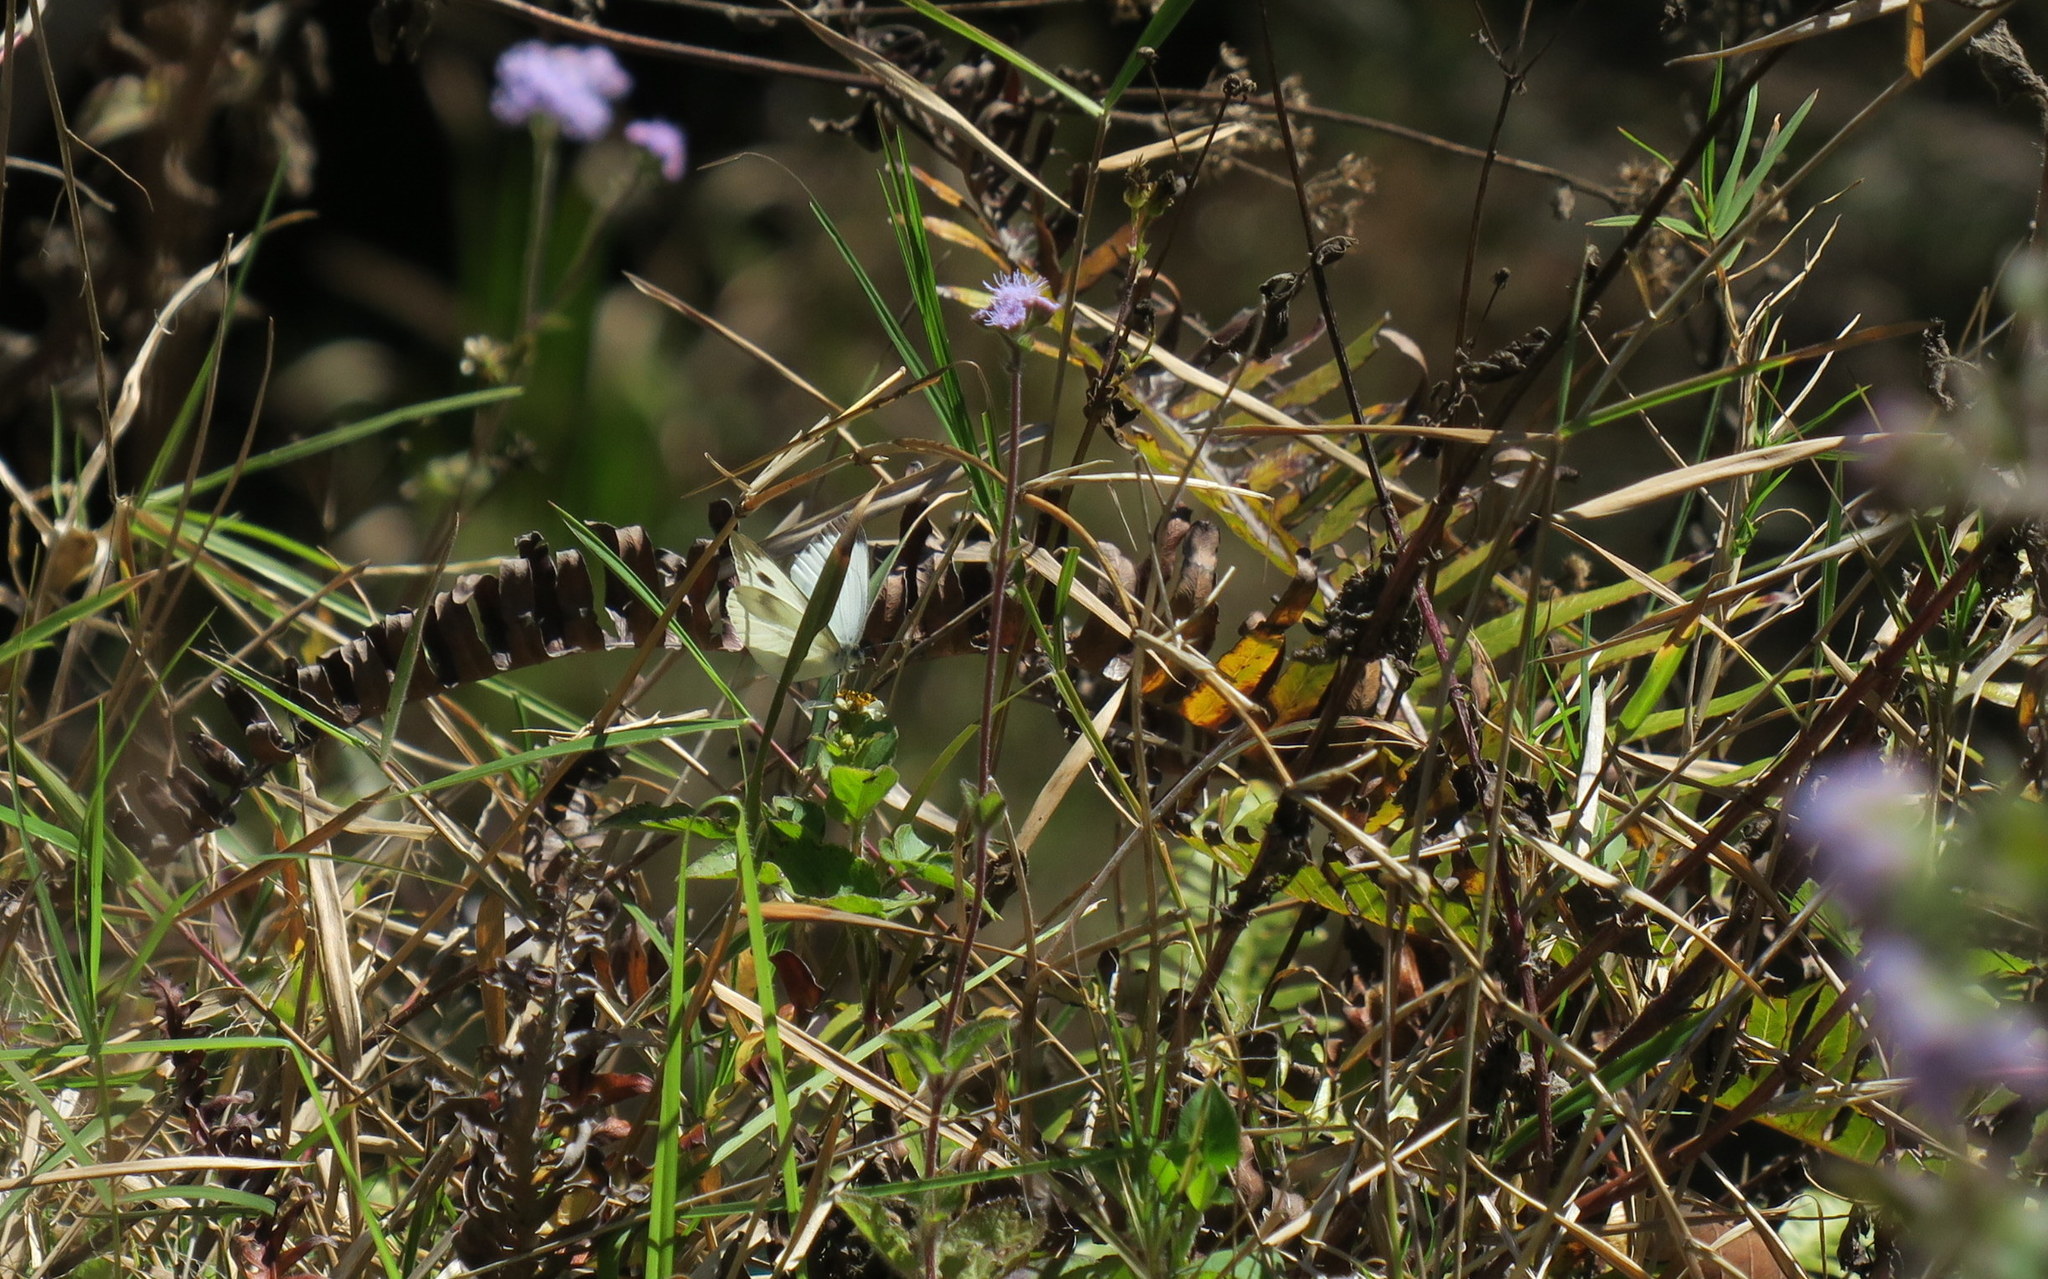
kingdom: Animalia
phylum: Arthropoda
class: Insecta
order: Lepidoptera
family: Pieridae
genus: Pieris
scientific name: Pieris canidia
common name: Indian cabbage white
